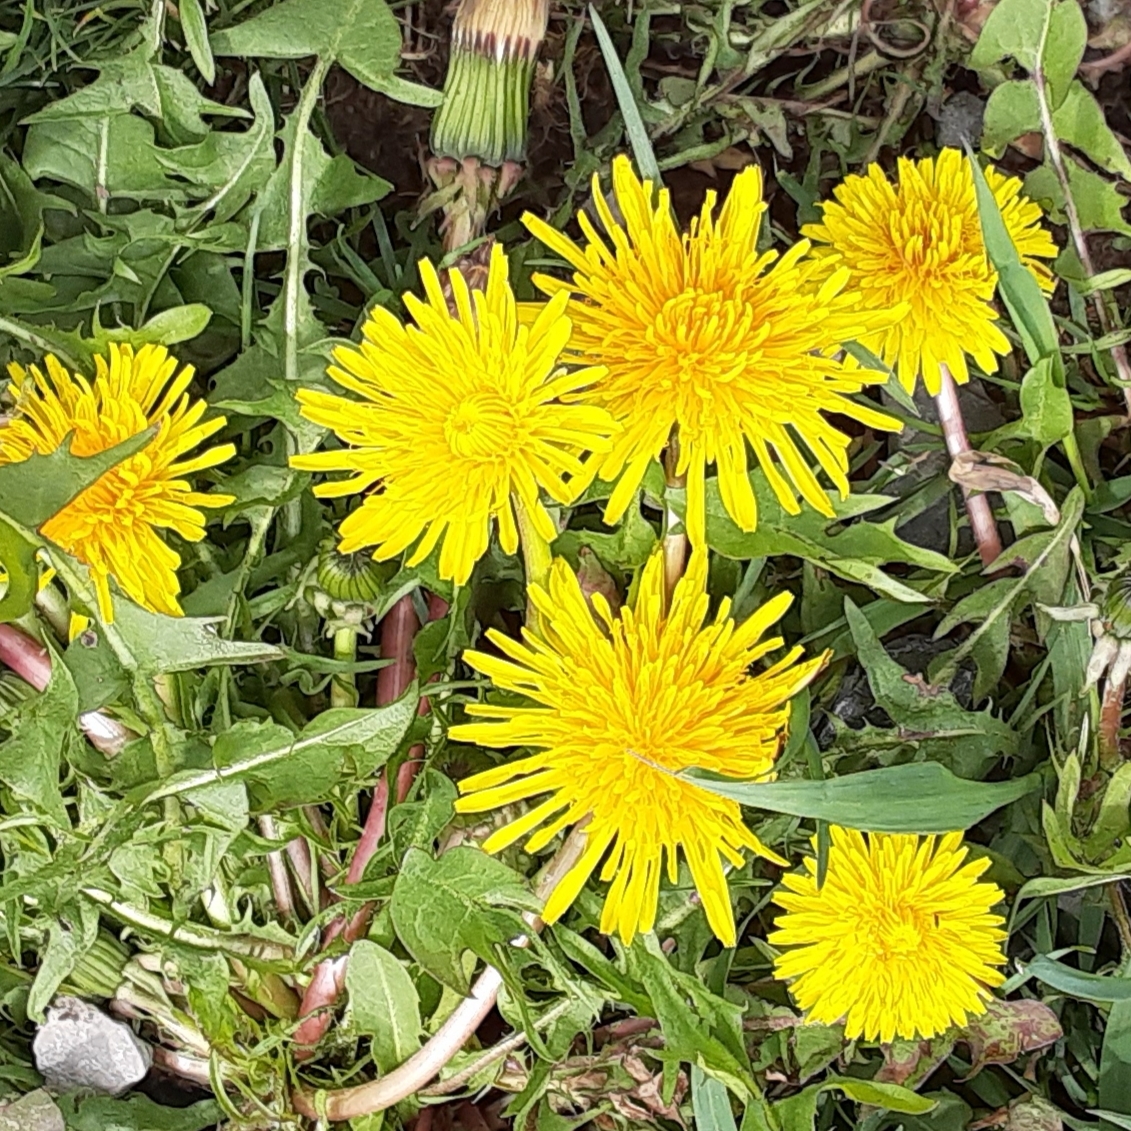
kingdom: Plantae
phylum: Tracheophyta
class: Magnoliopsida
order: Asterales
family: Asteraceae
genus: Taraxacum
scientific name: Taraxacum officinale
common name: Common dandelion
